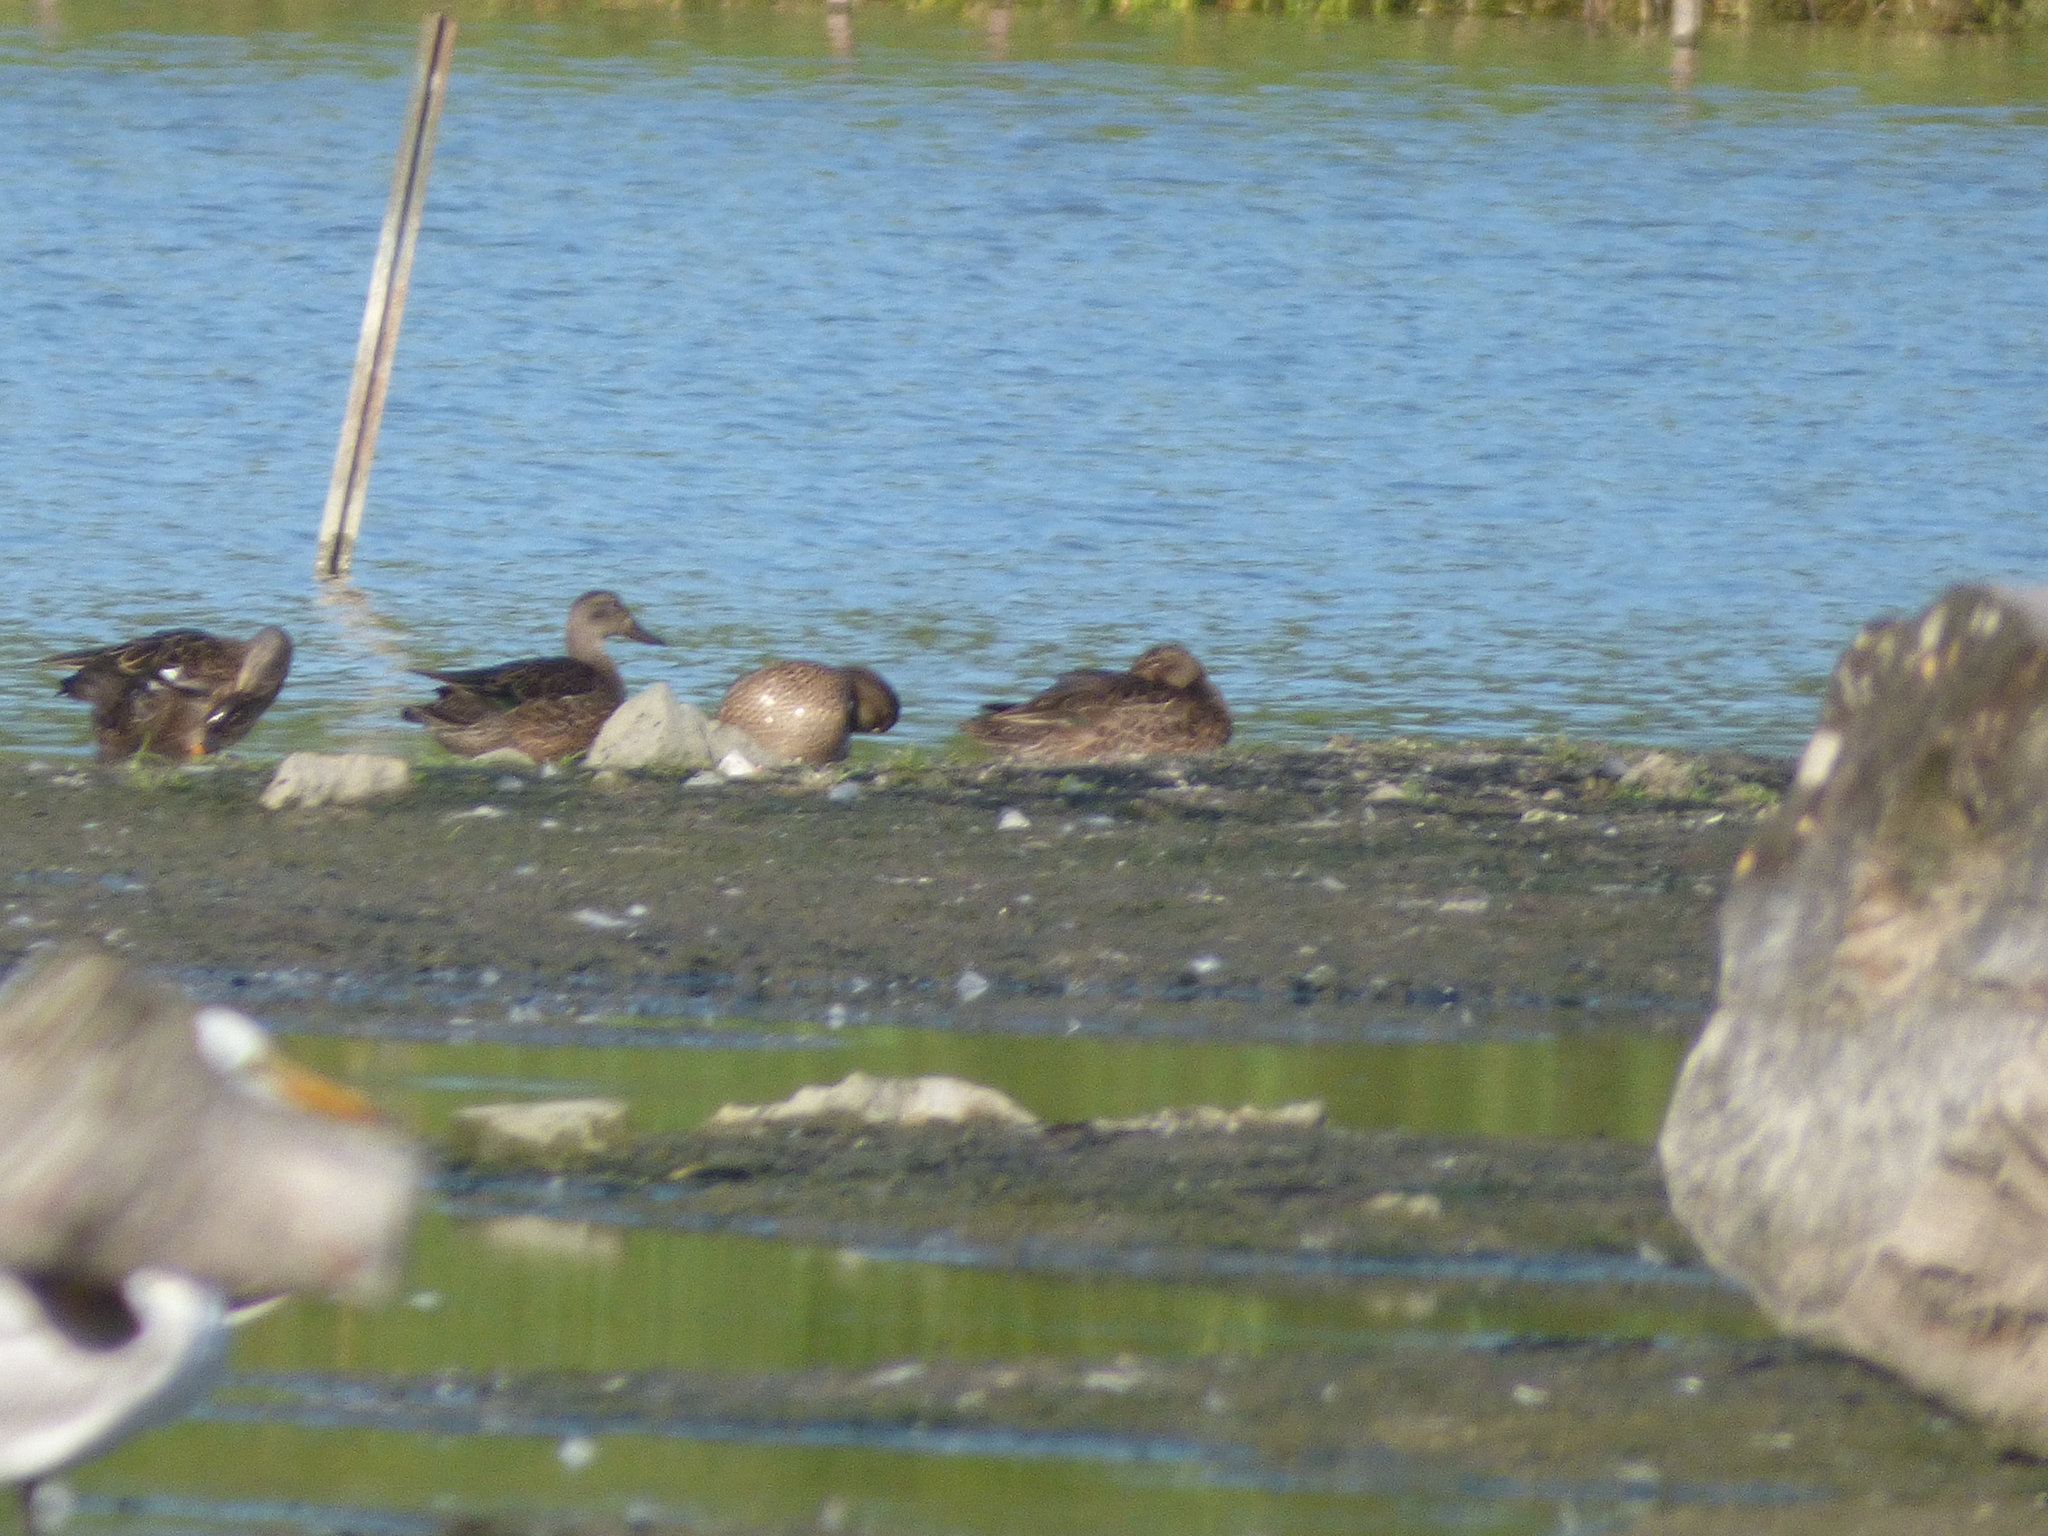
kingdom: Animalia
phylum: Chordata
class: Aves
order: Anseriformes
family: Anatidae
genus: Spatula
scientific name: Spatula discors
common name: Blue-winged teal
